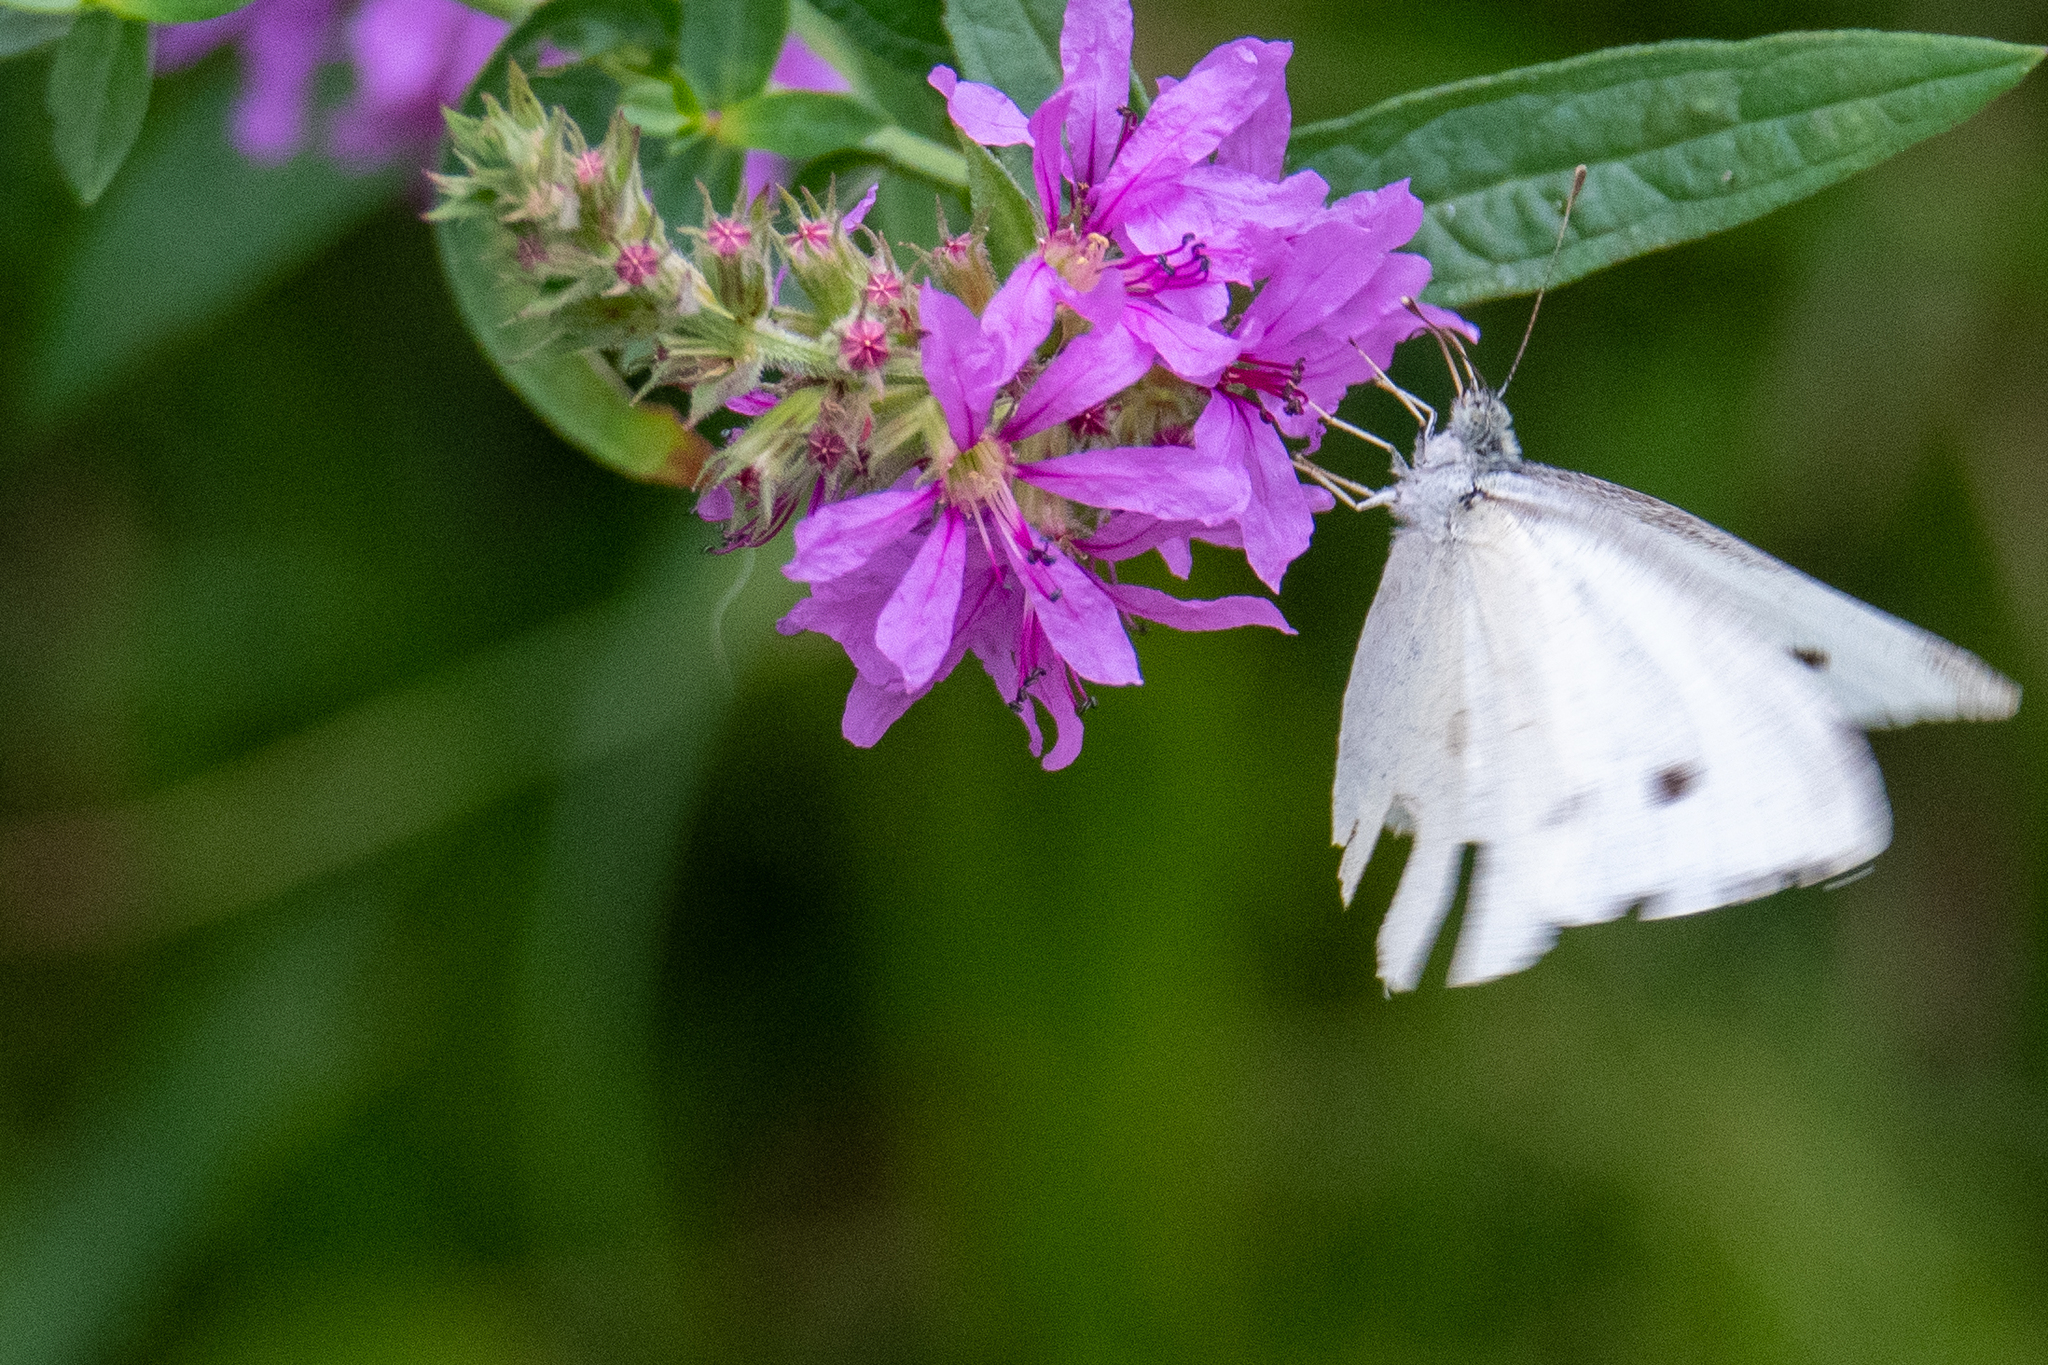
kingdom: Animalia
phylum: Arthropoda
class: Insecta
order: Lepidoptera
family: Pieridae
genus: Pieris
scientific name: Pieris rapae
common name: Small white
